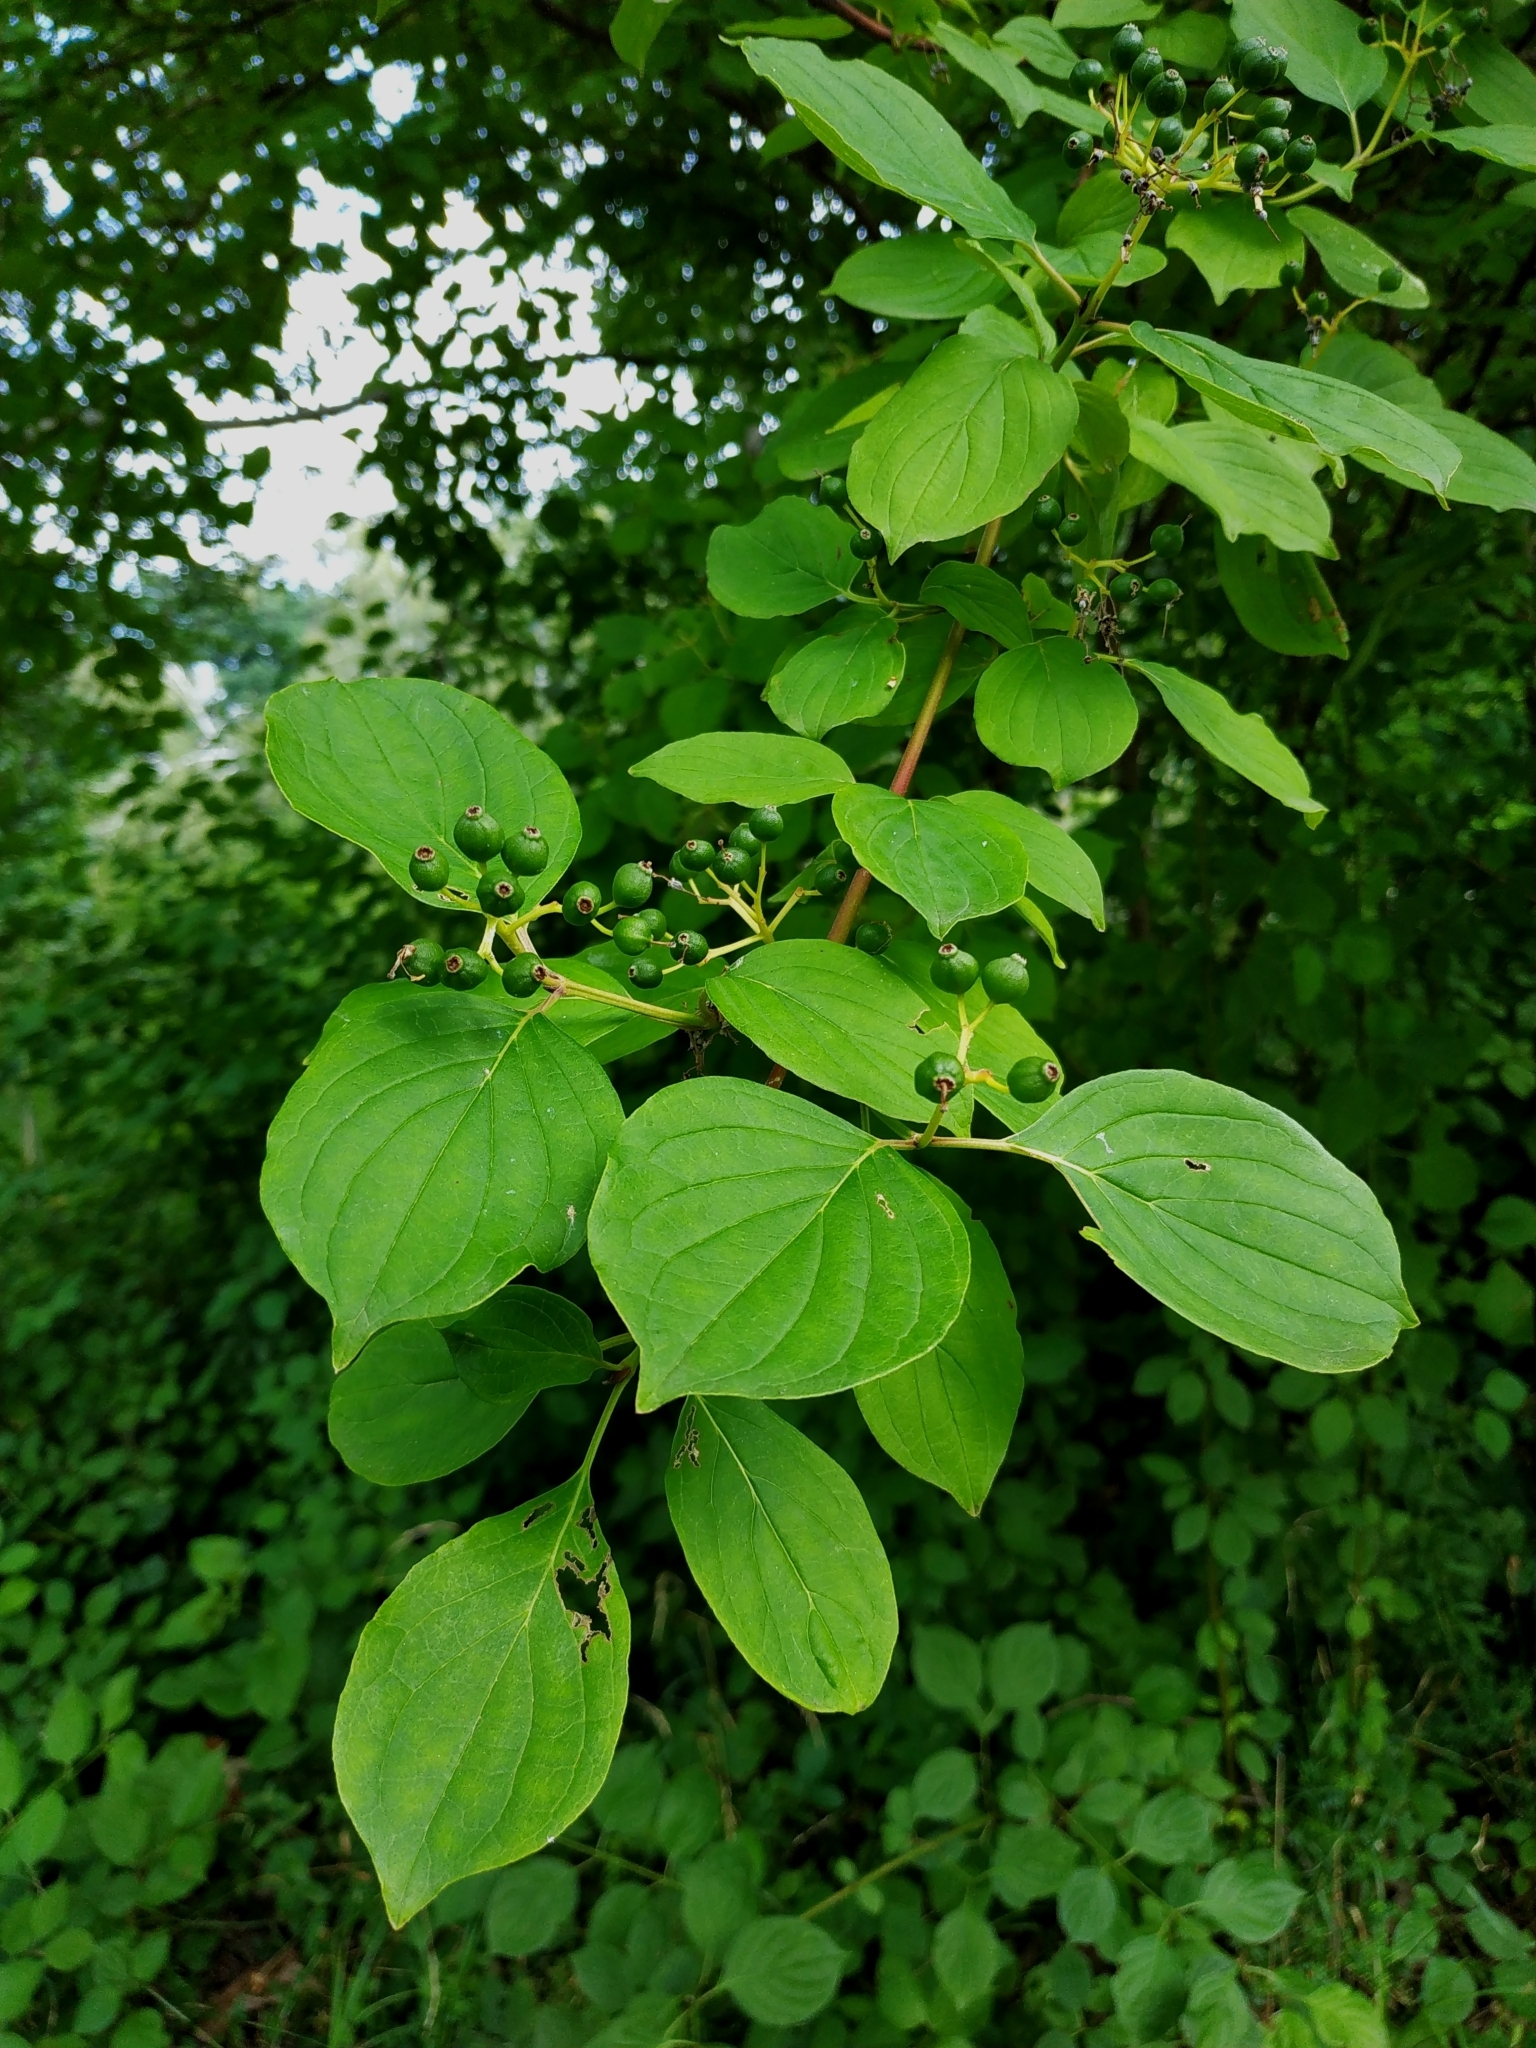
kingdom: Plantae
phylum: Tracheophyta
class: Magnoliopsida
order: Cornales
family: Cornaceae
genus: Cornus
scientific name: Cornus sanguinea
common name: Dogwood
